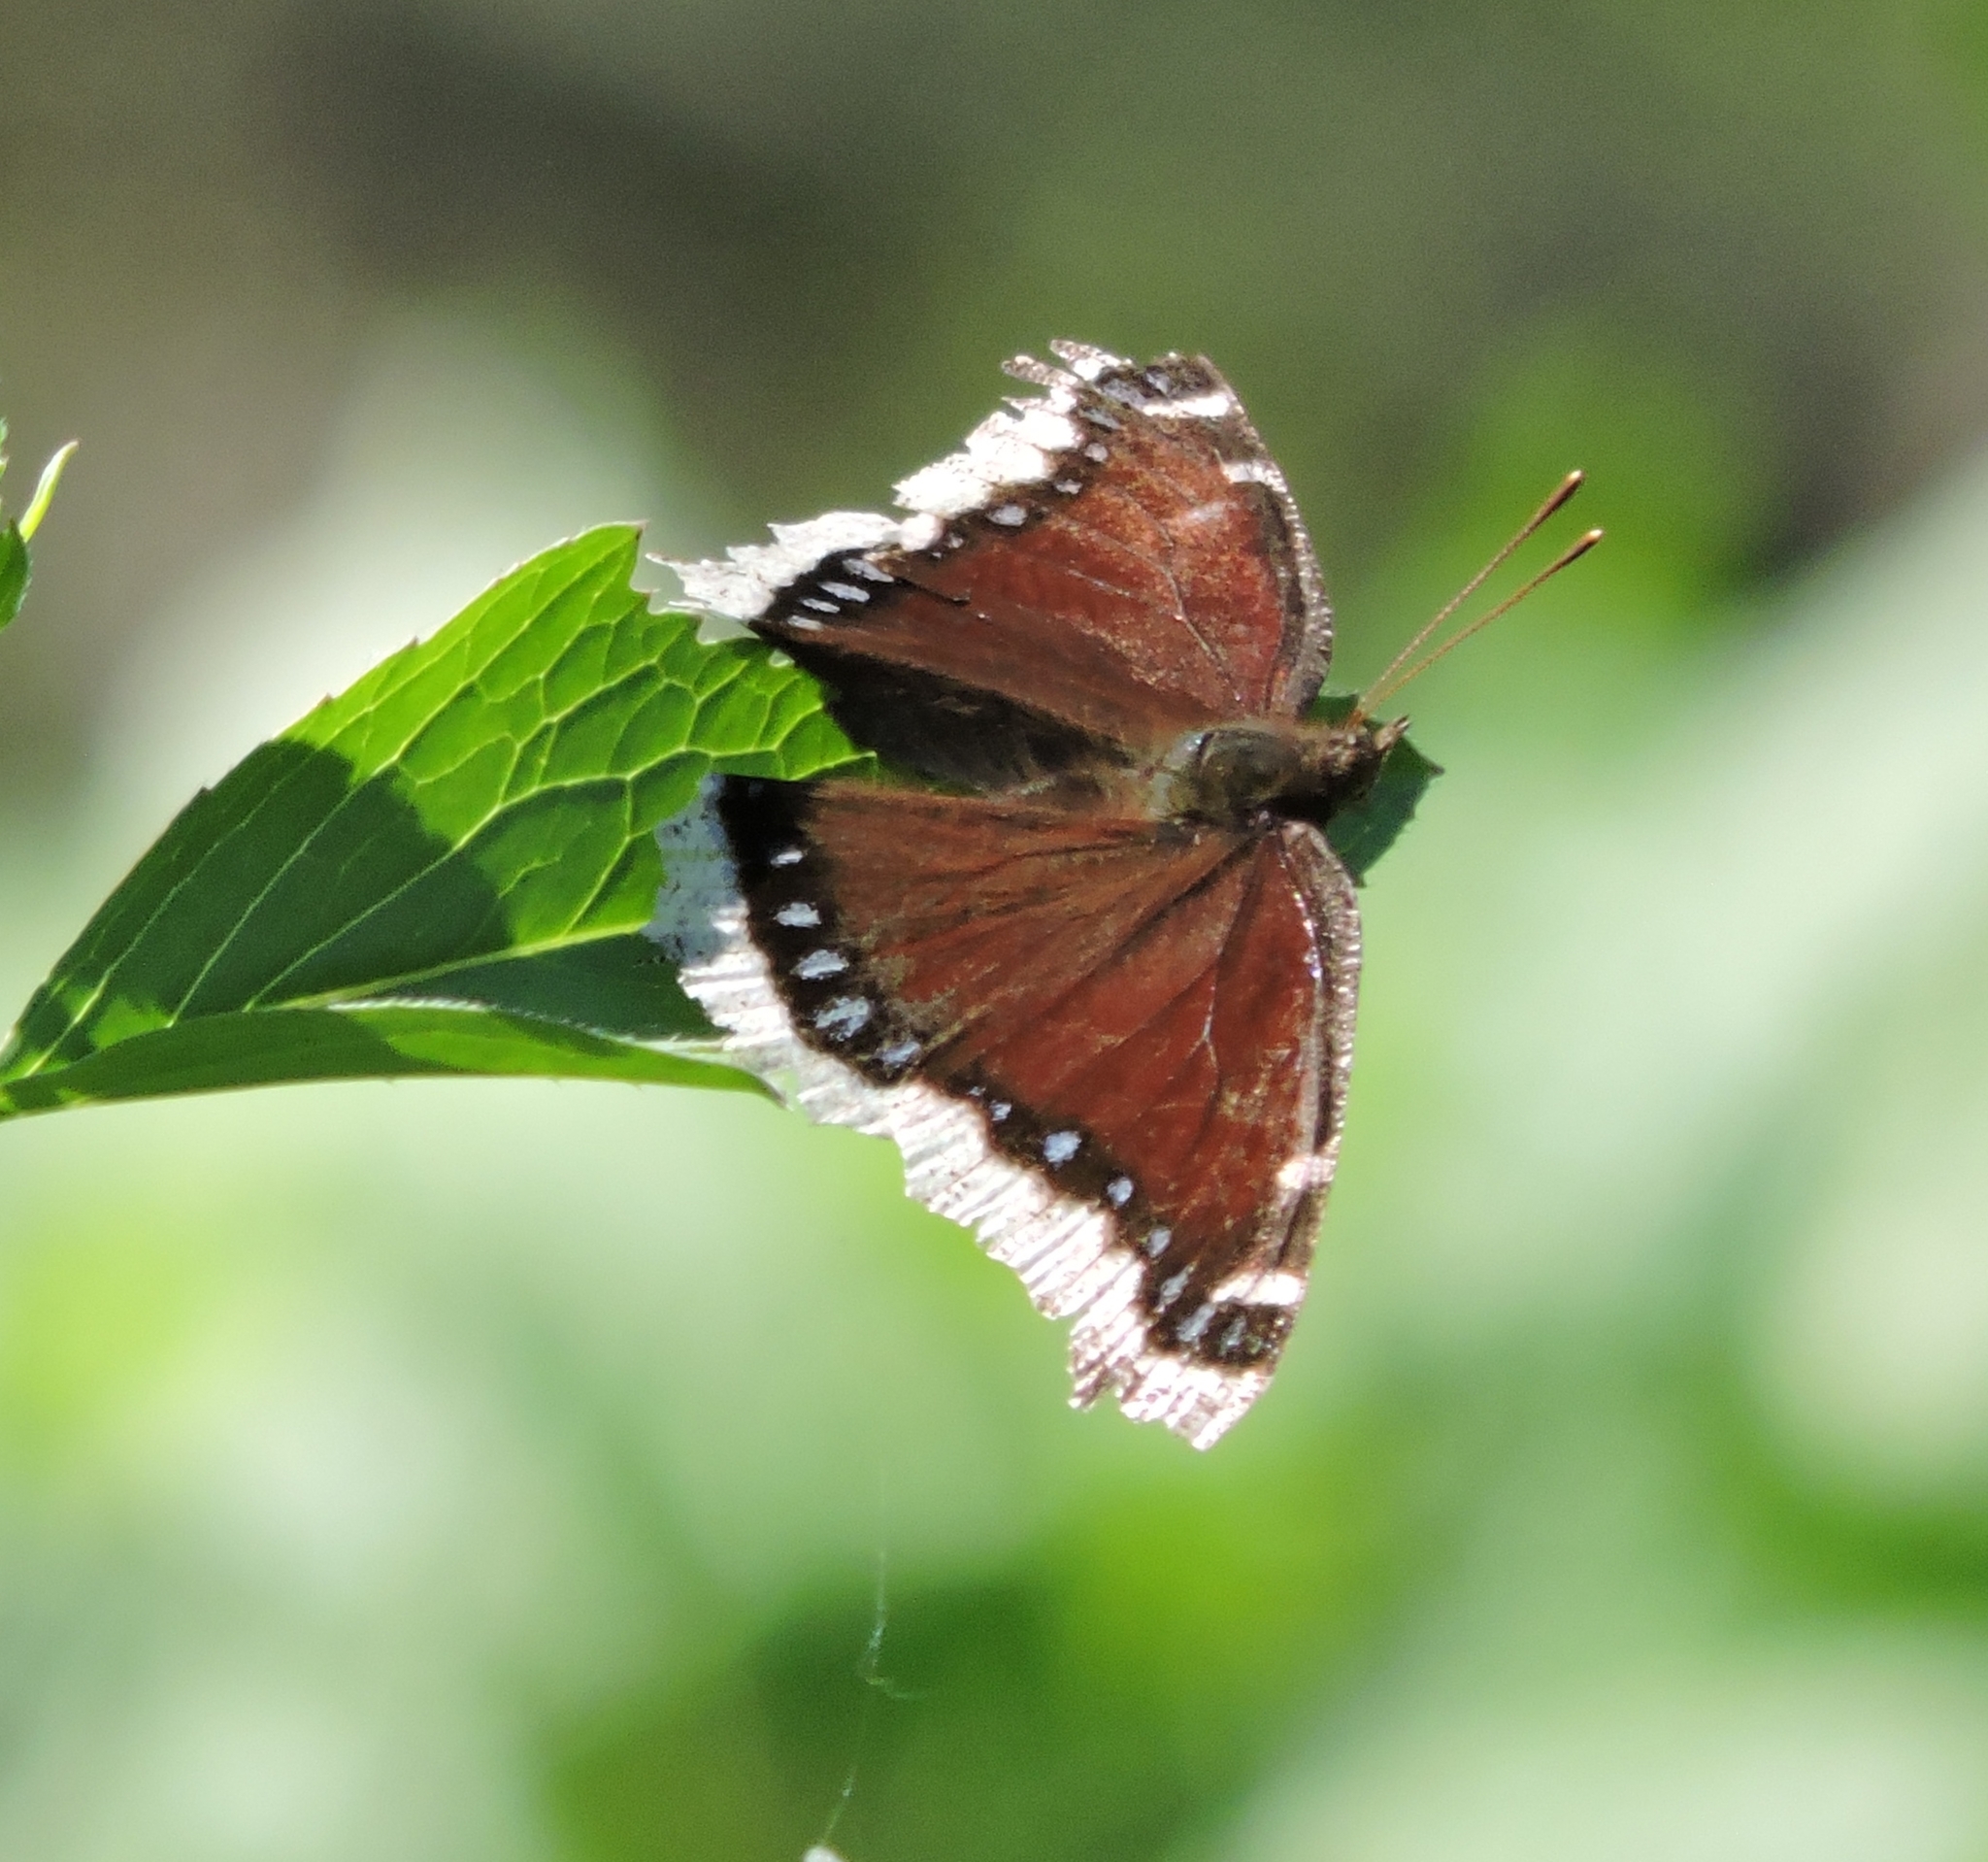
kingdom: Animalia
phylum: Arthropoda
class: Insecta
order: Lepidoptera
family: Nymphalidae
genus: Nymphalis
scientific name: Nymphalis antiopa
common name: Camberwell beauty
